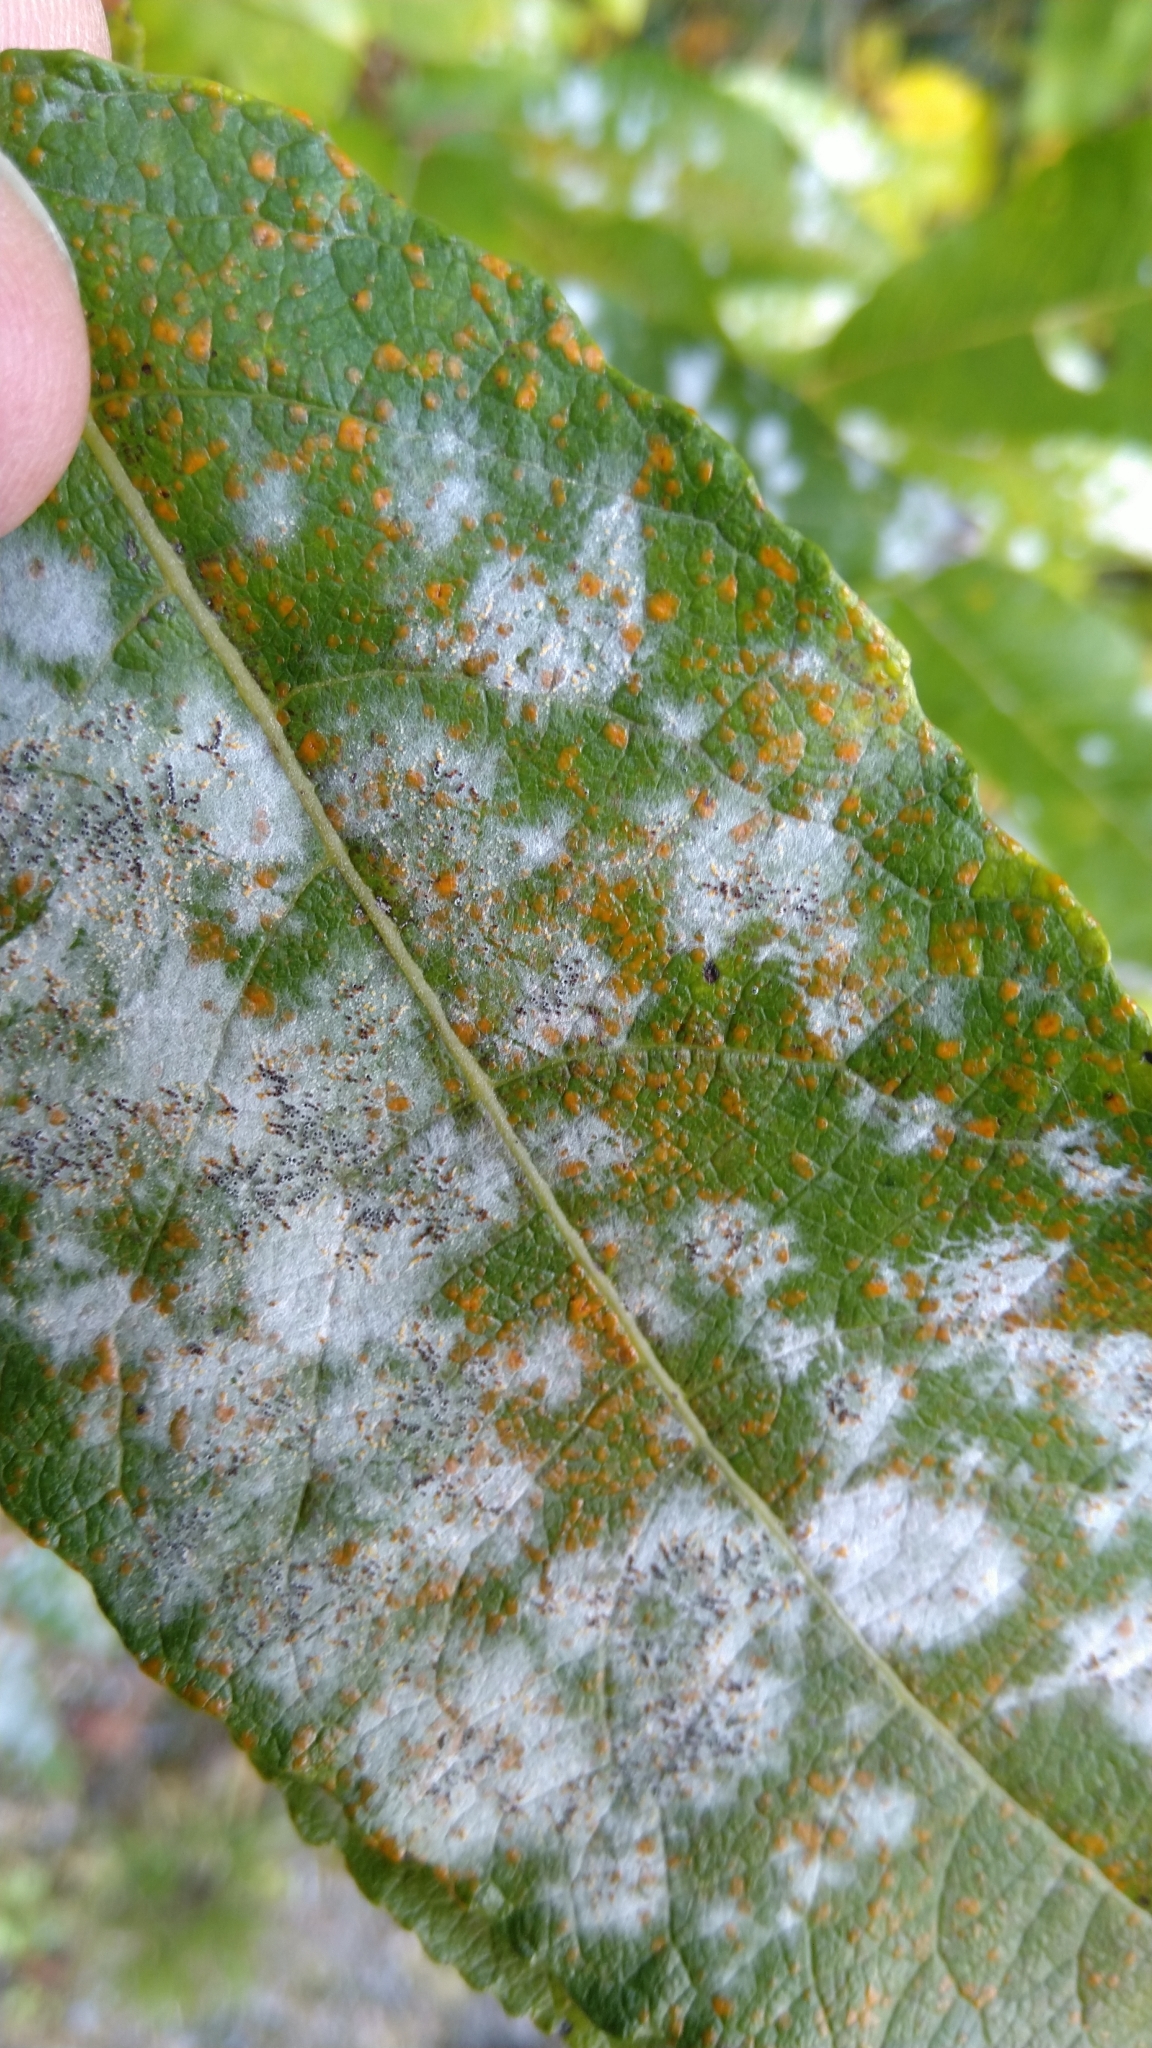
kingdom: Fungi
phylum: Ascomycota
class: Leotiomycetes
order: Helotiales
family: Erysiphaceae
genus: Erysiphe
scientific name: Erysiphe capreae
